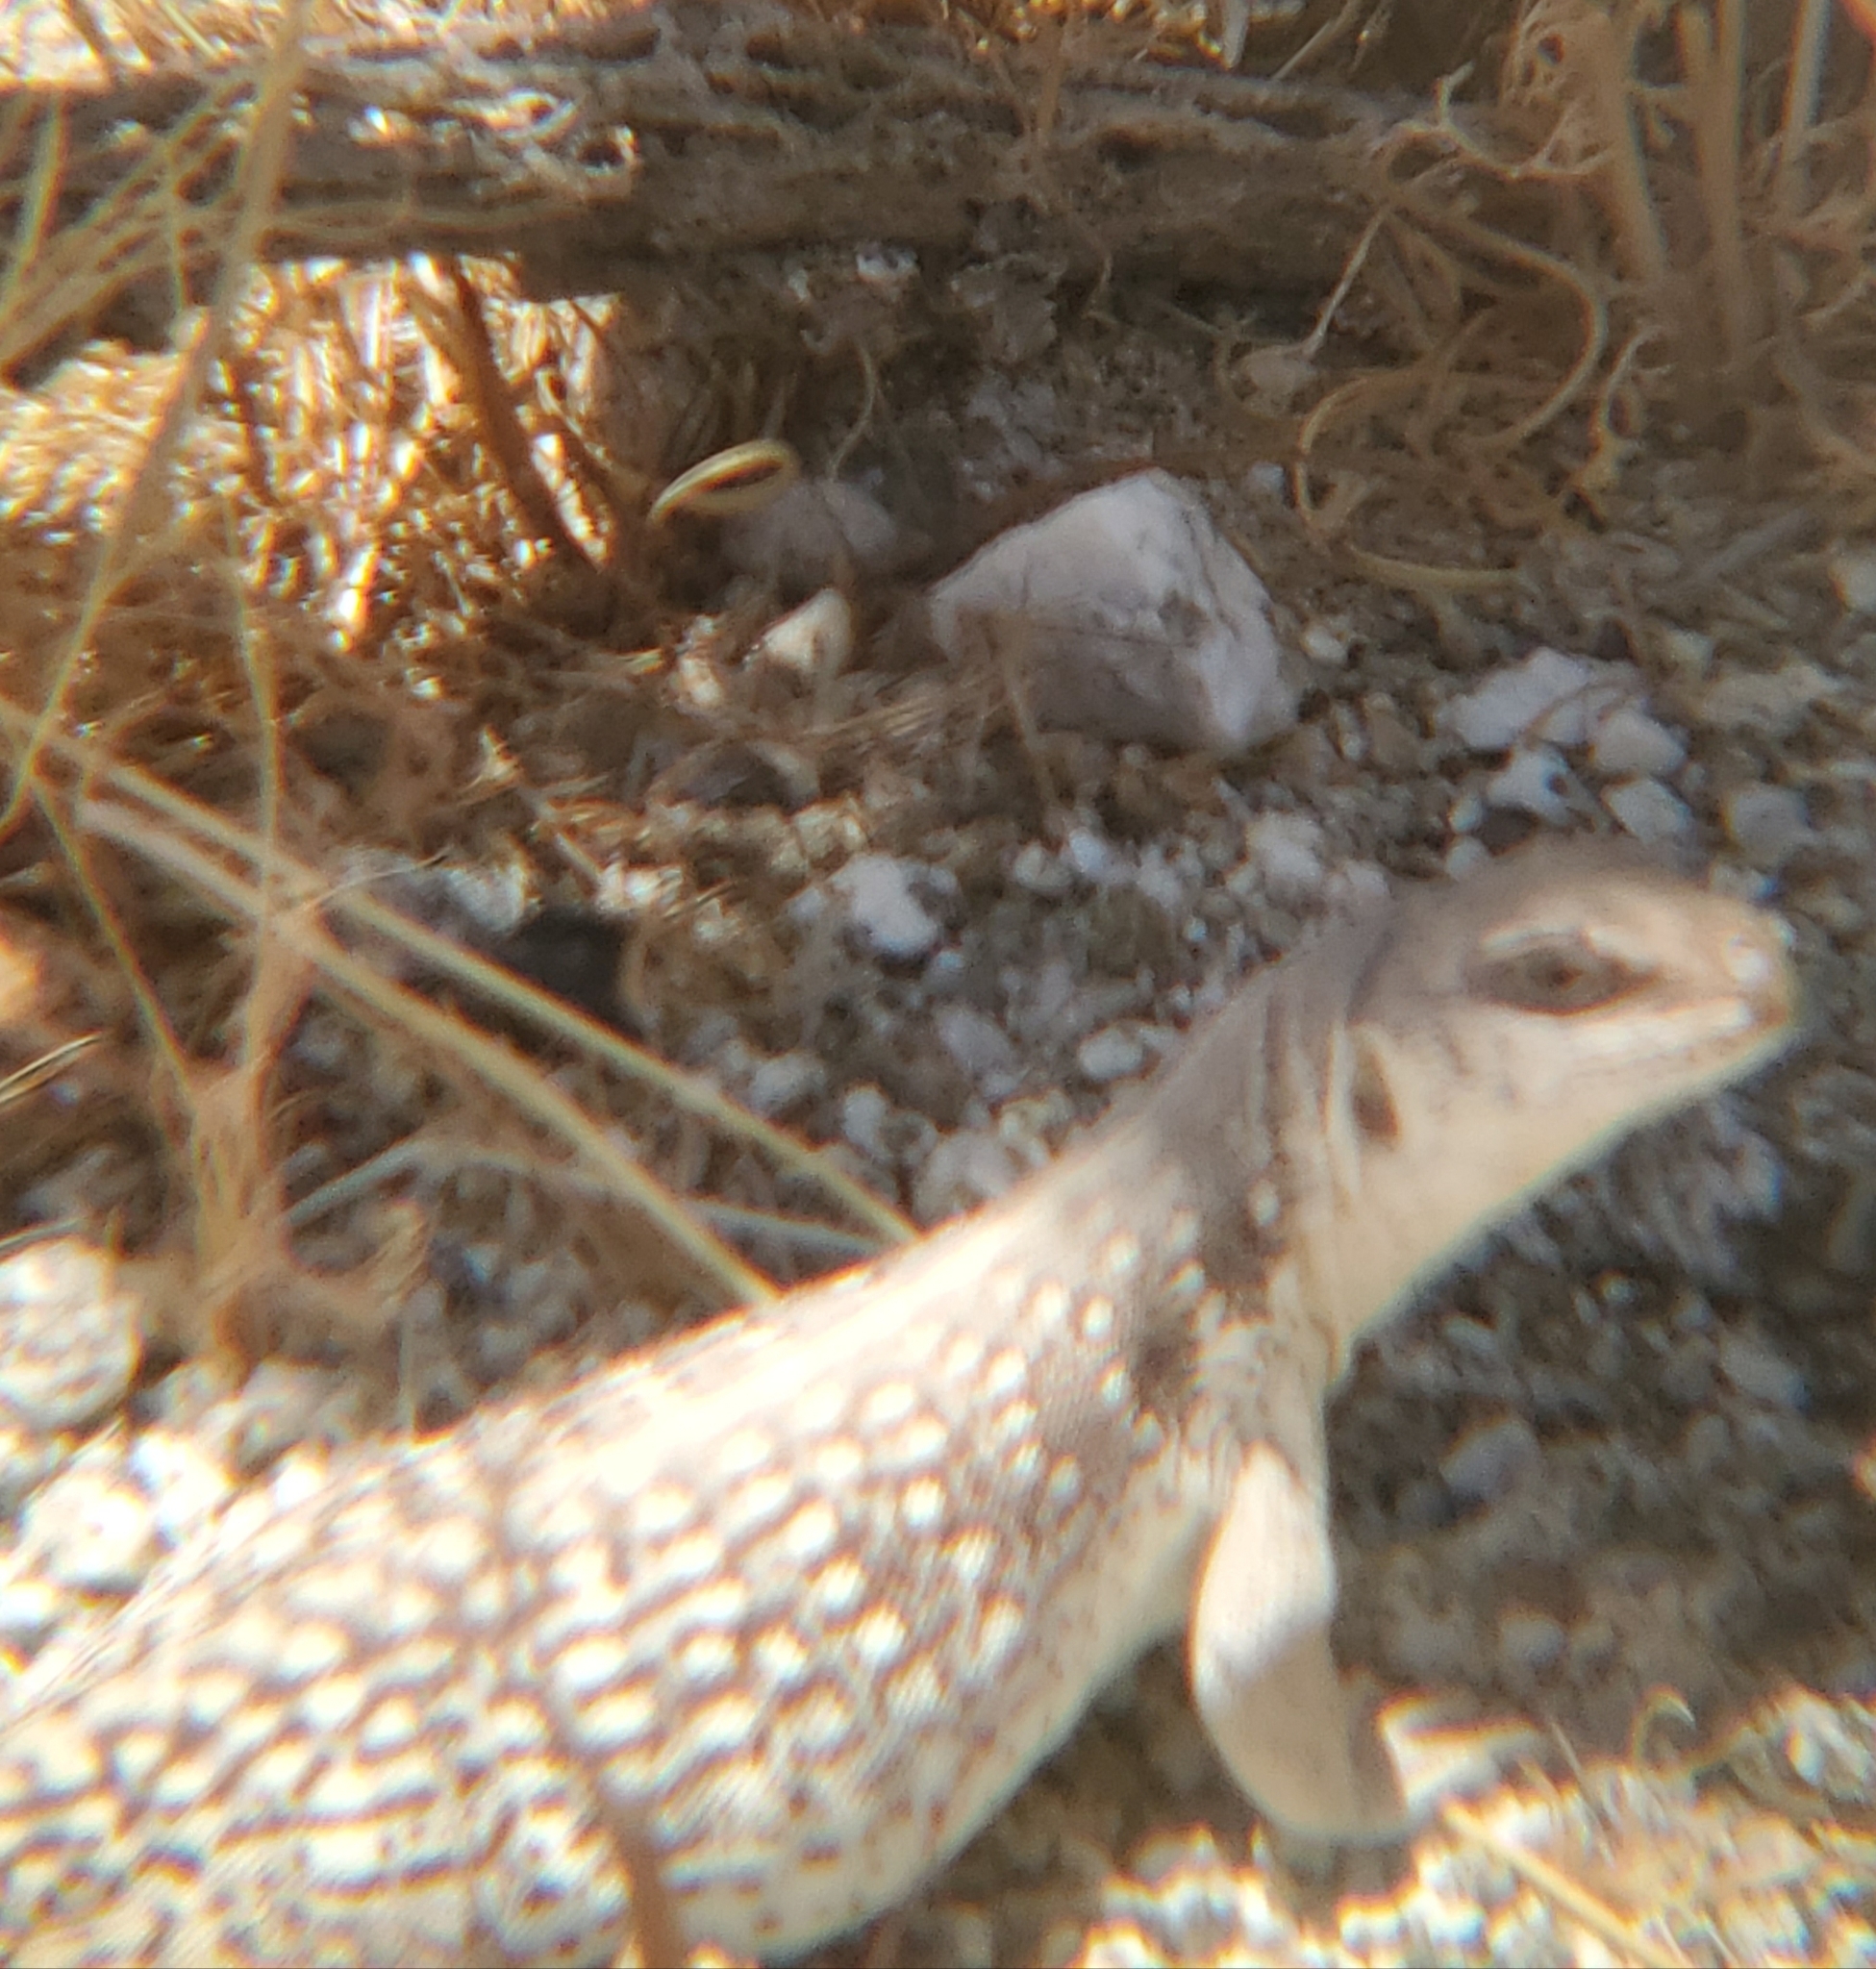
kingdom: Animalia
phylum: Chordata
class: Squamata
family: Iguanidae
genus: Dipsosaurus
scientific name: Dipsosaurus dorsalis
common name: Desert iguana
